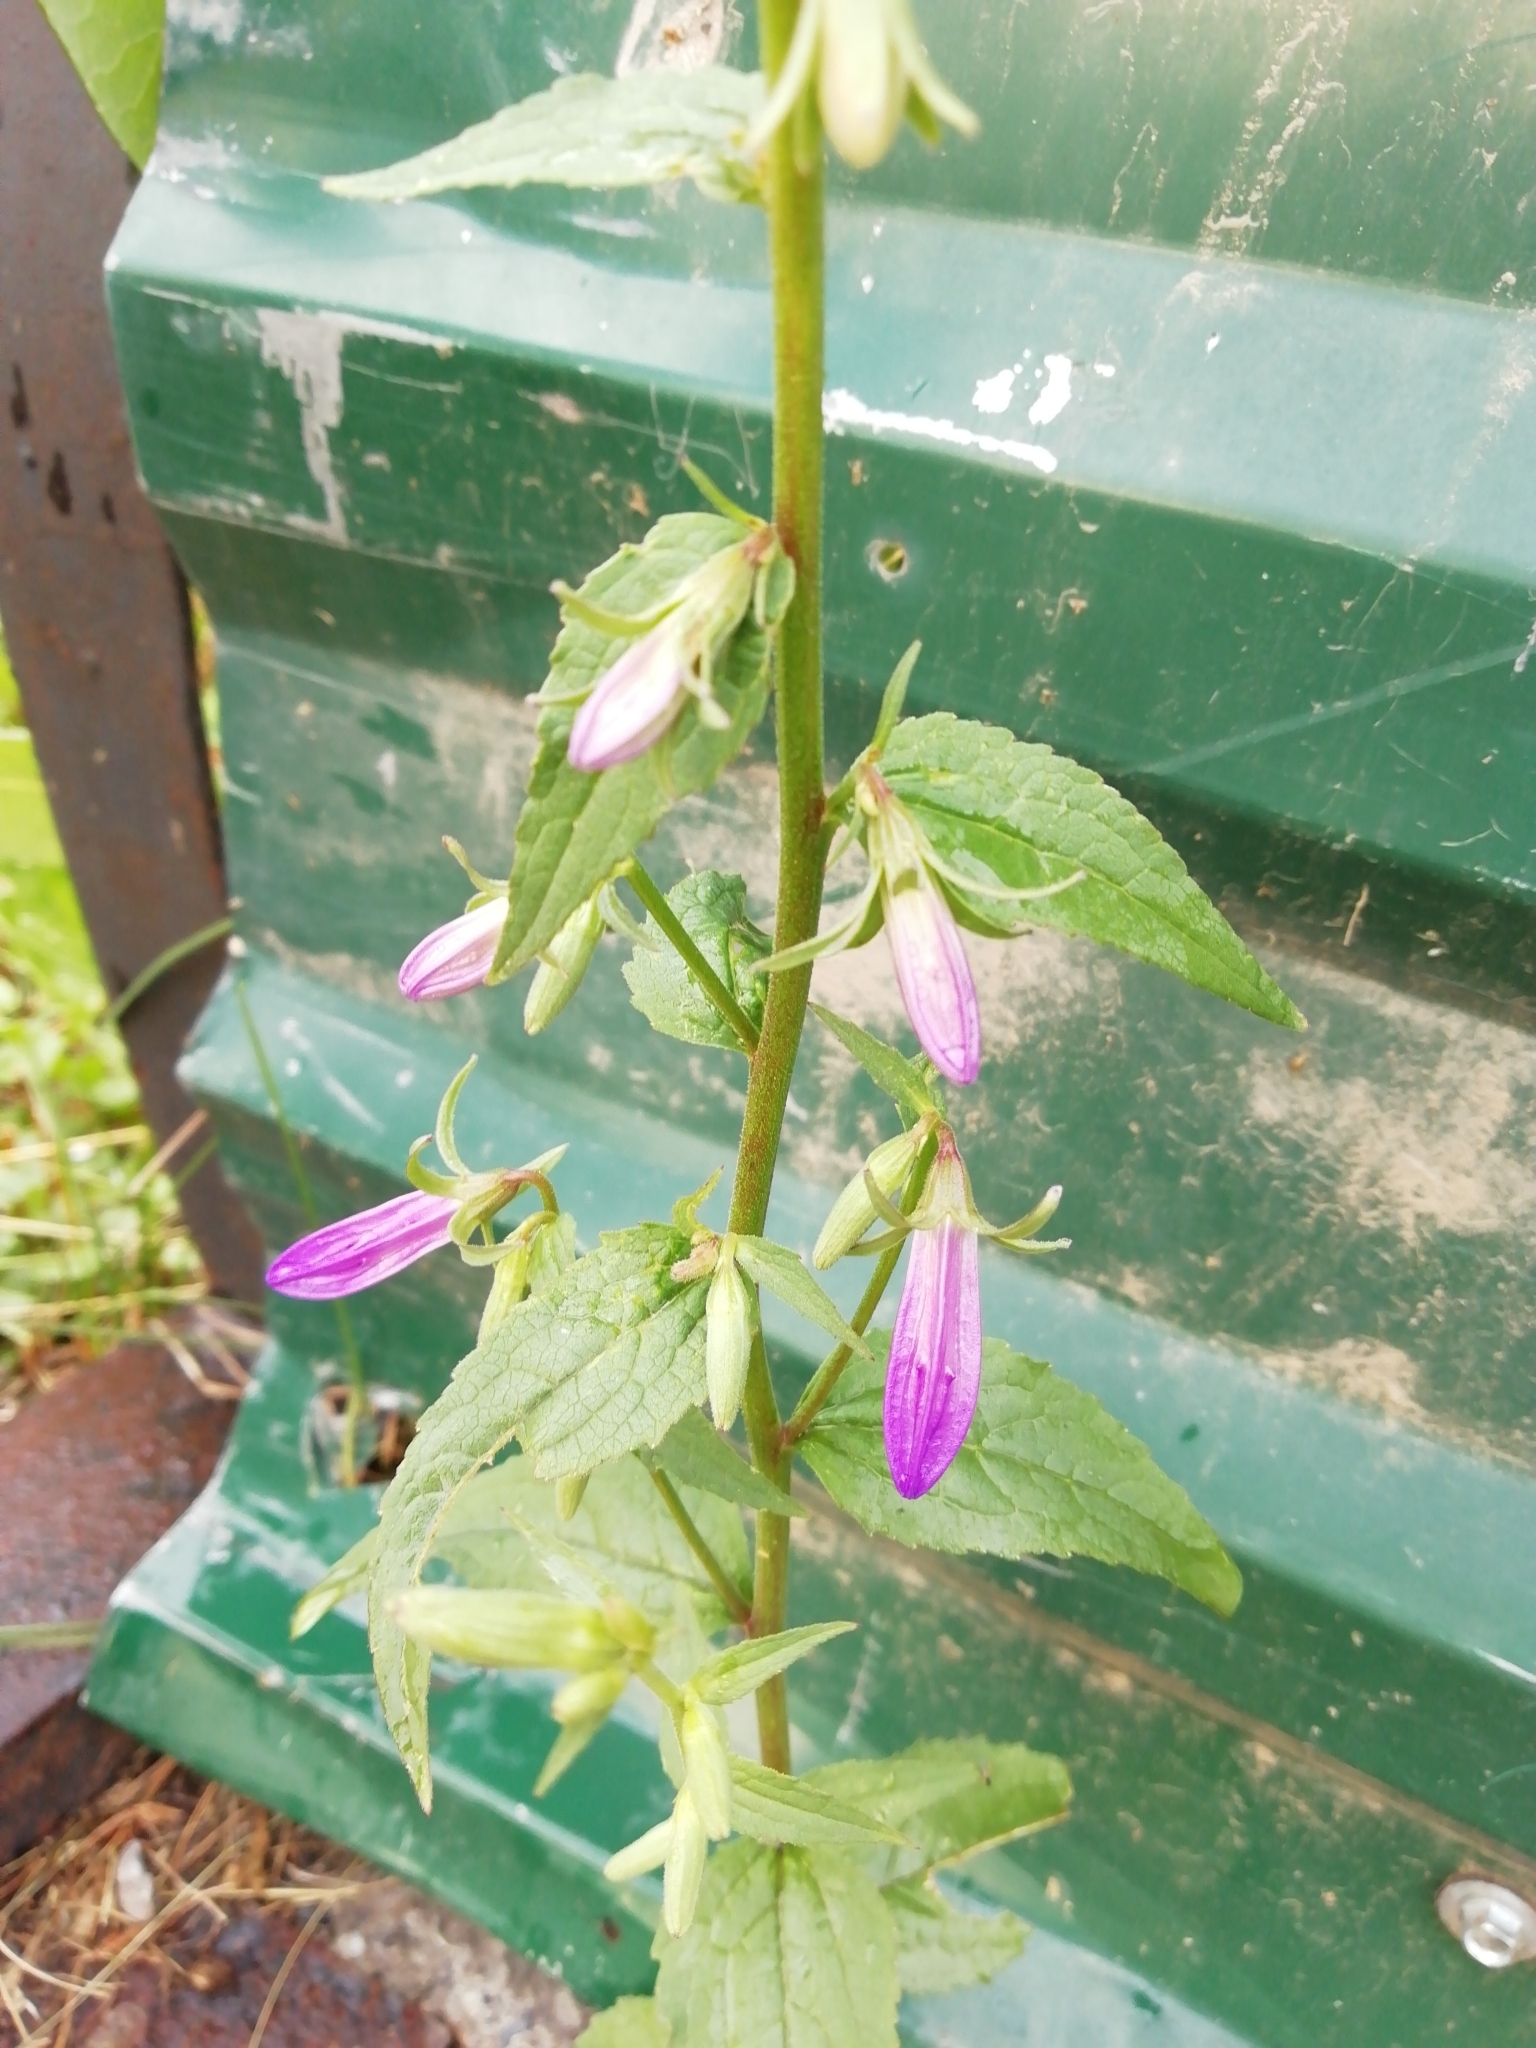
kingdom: Plantae
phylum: Tracheophyta
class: Magnoliopsida
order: Asterales
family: Campanulaceae
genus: Campanula
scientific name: Campanula rapunculoides
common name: Creeping bellflower
